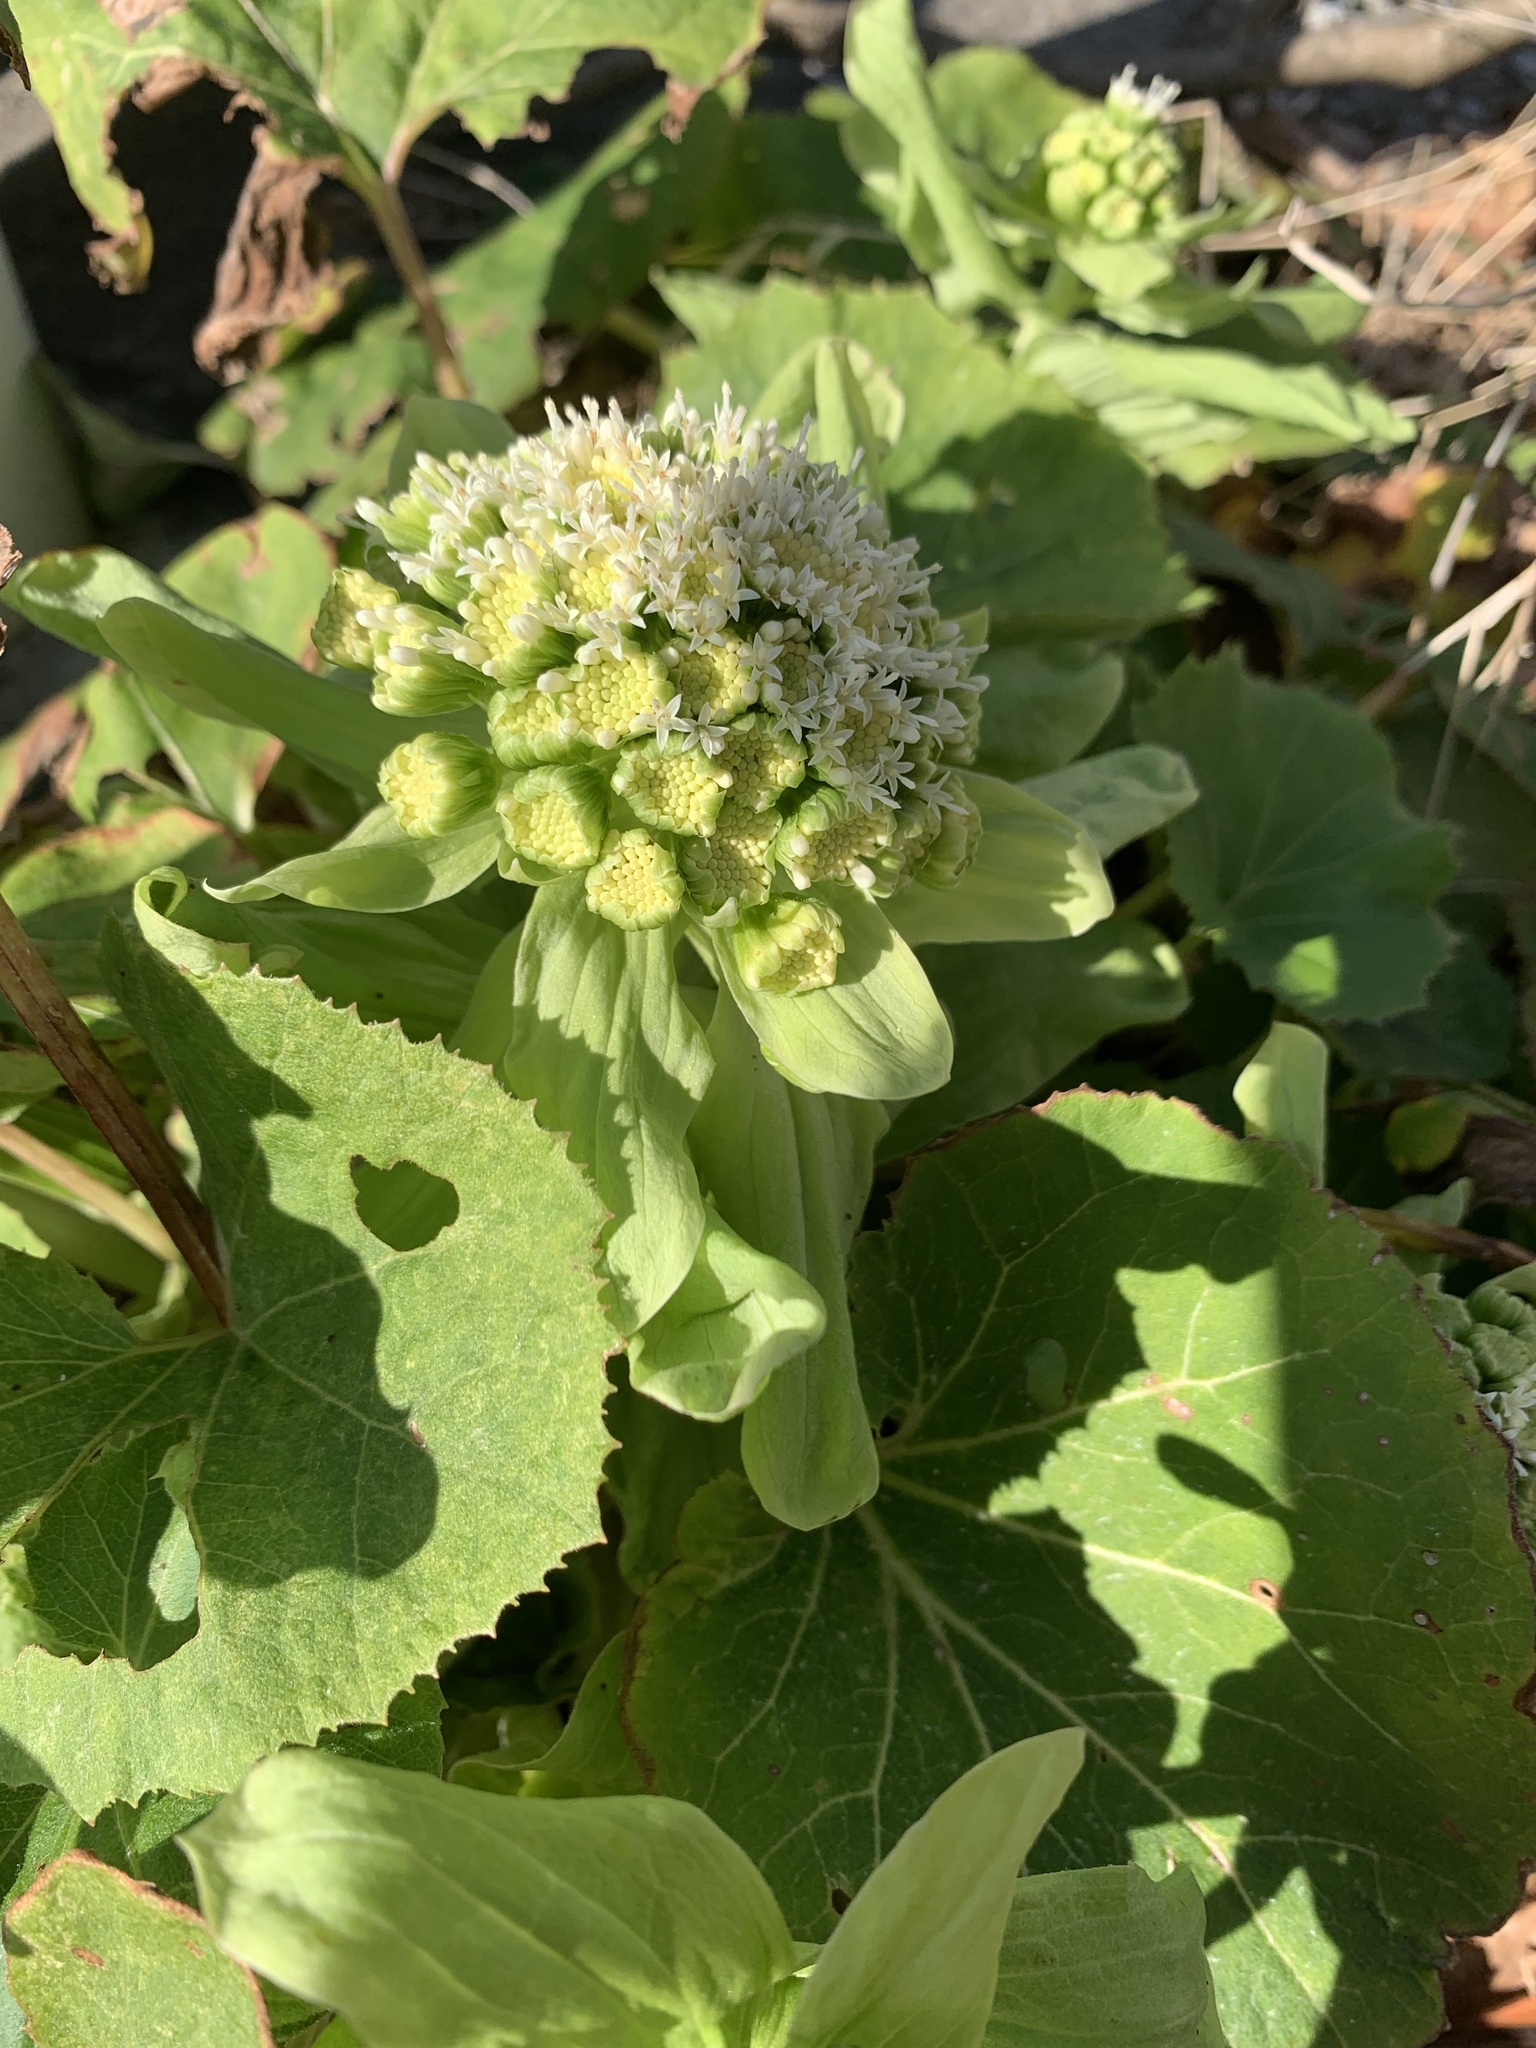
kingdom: Plantae
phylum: Tracheophyta
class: Magnoliopsida
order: Asterales
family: Asteraceae
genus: Petasites
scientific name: Petasites japonicus
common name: Giant butterbur
